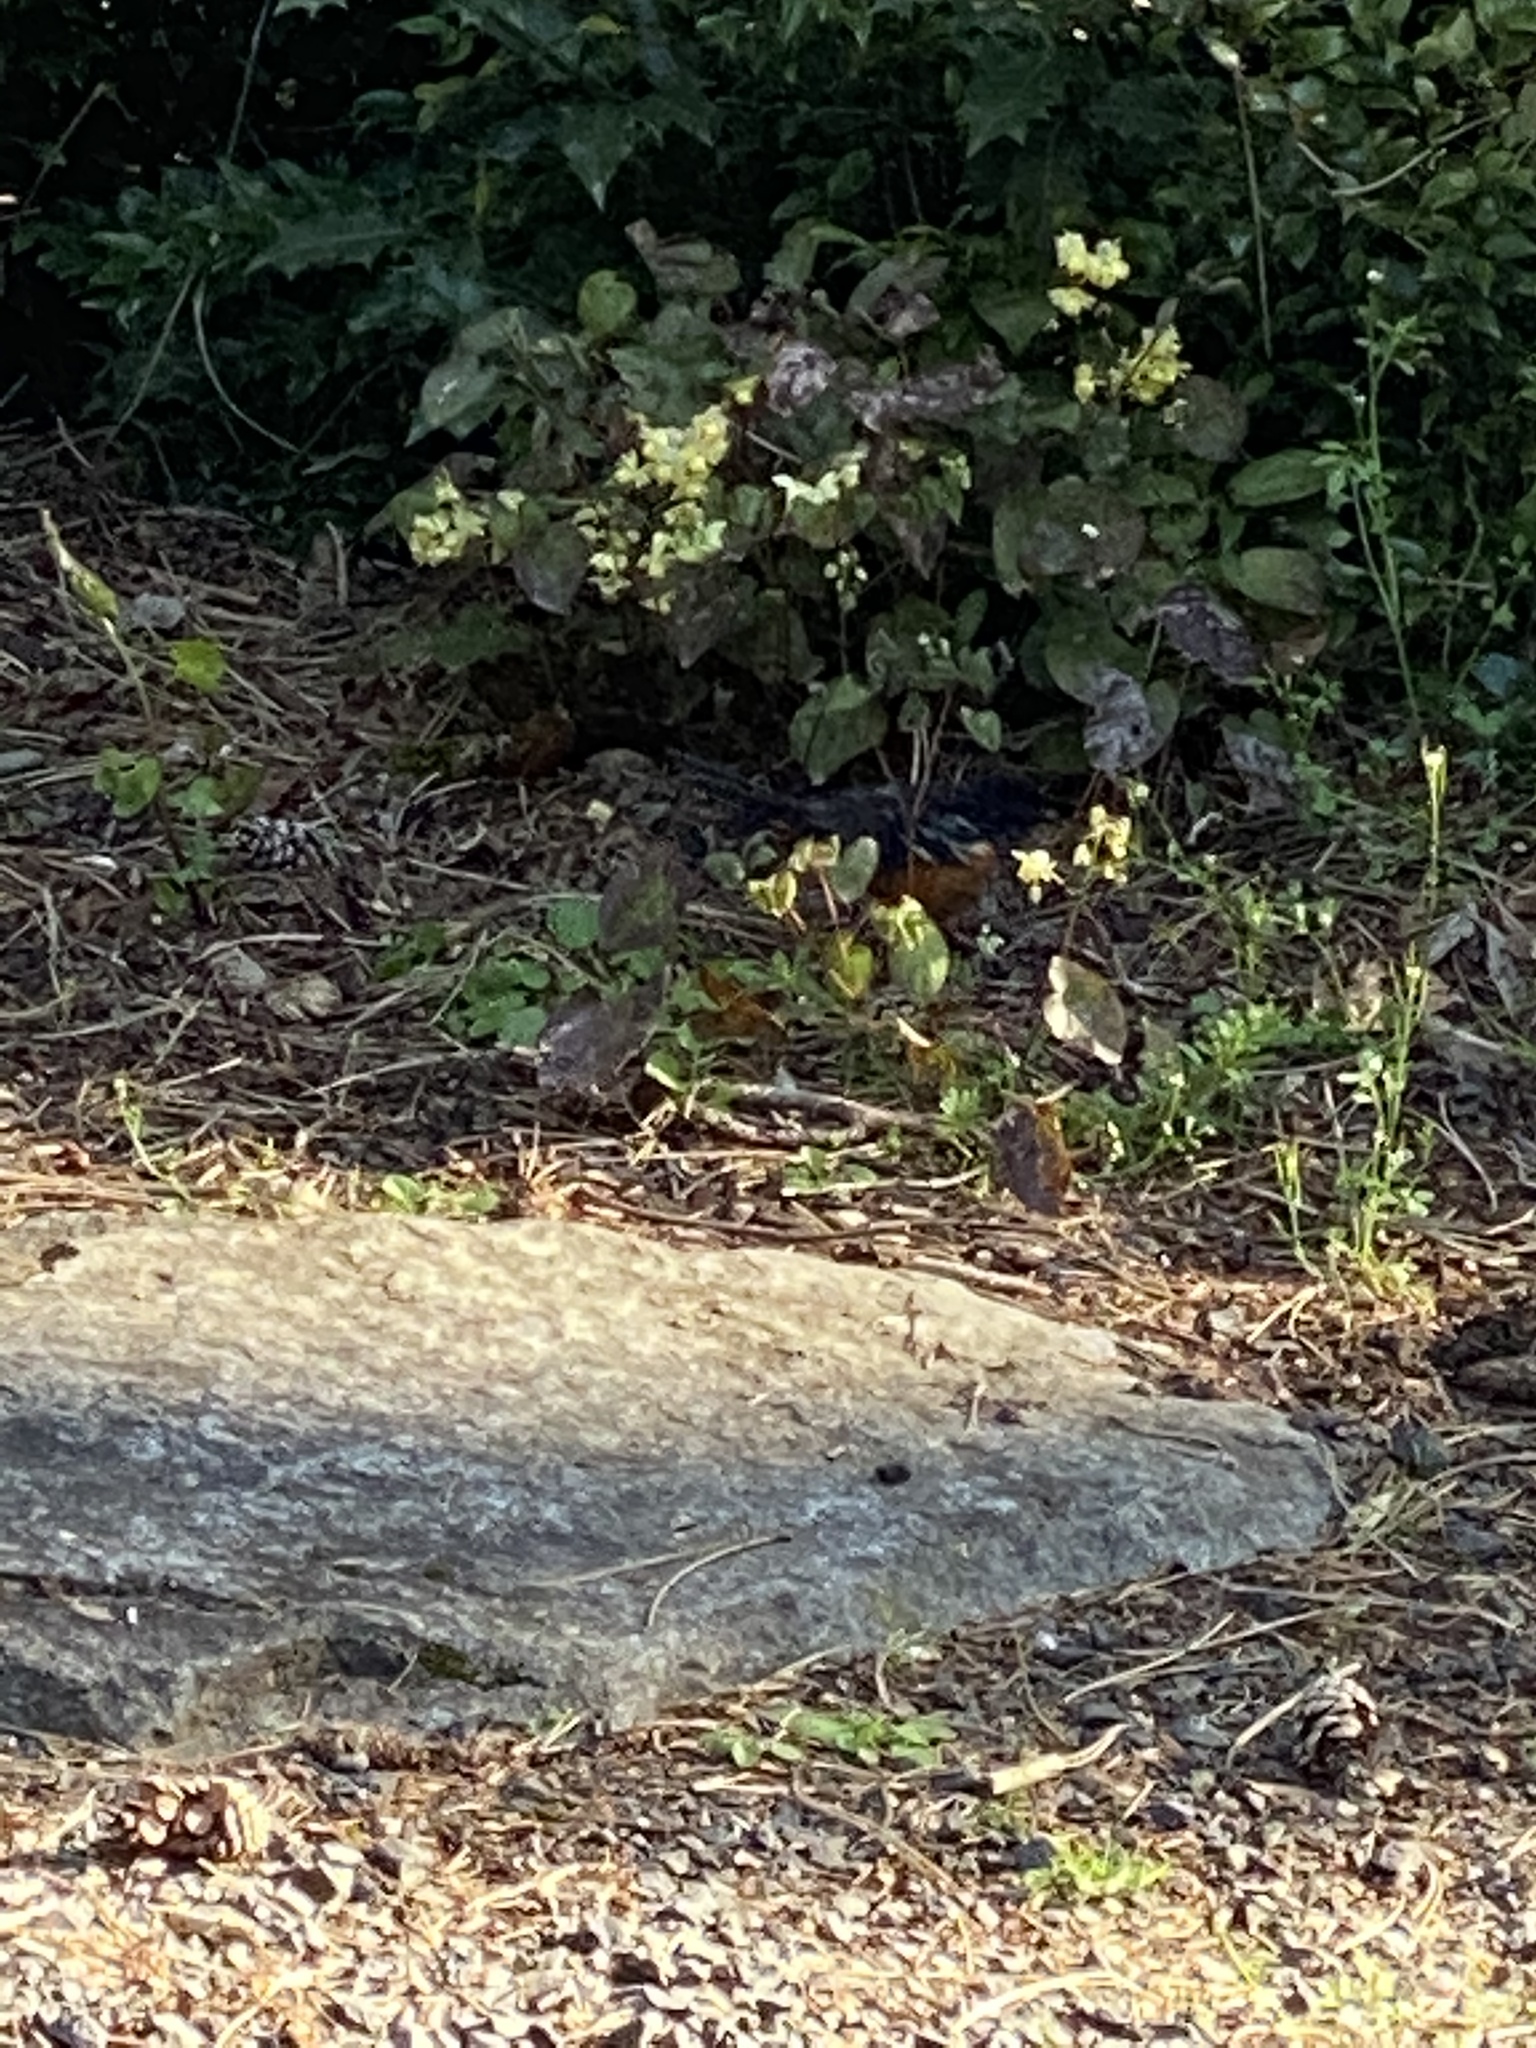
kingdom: Animalia
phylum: Chordata
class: Aves
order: Passeriformes
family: Passerellidae
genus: Pipilo
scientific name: Pipilo maculatus
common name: Spotted towhee
